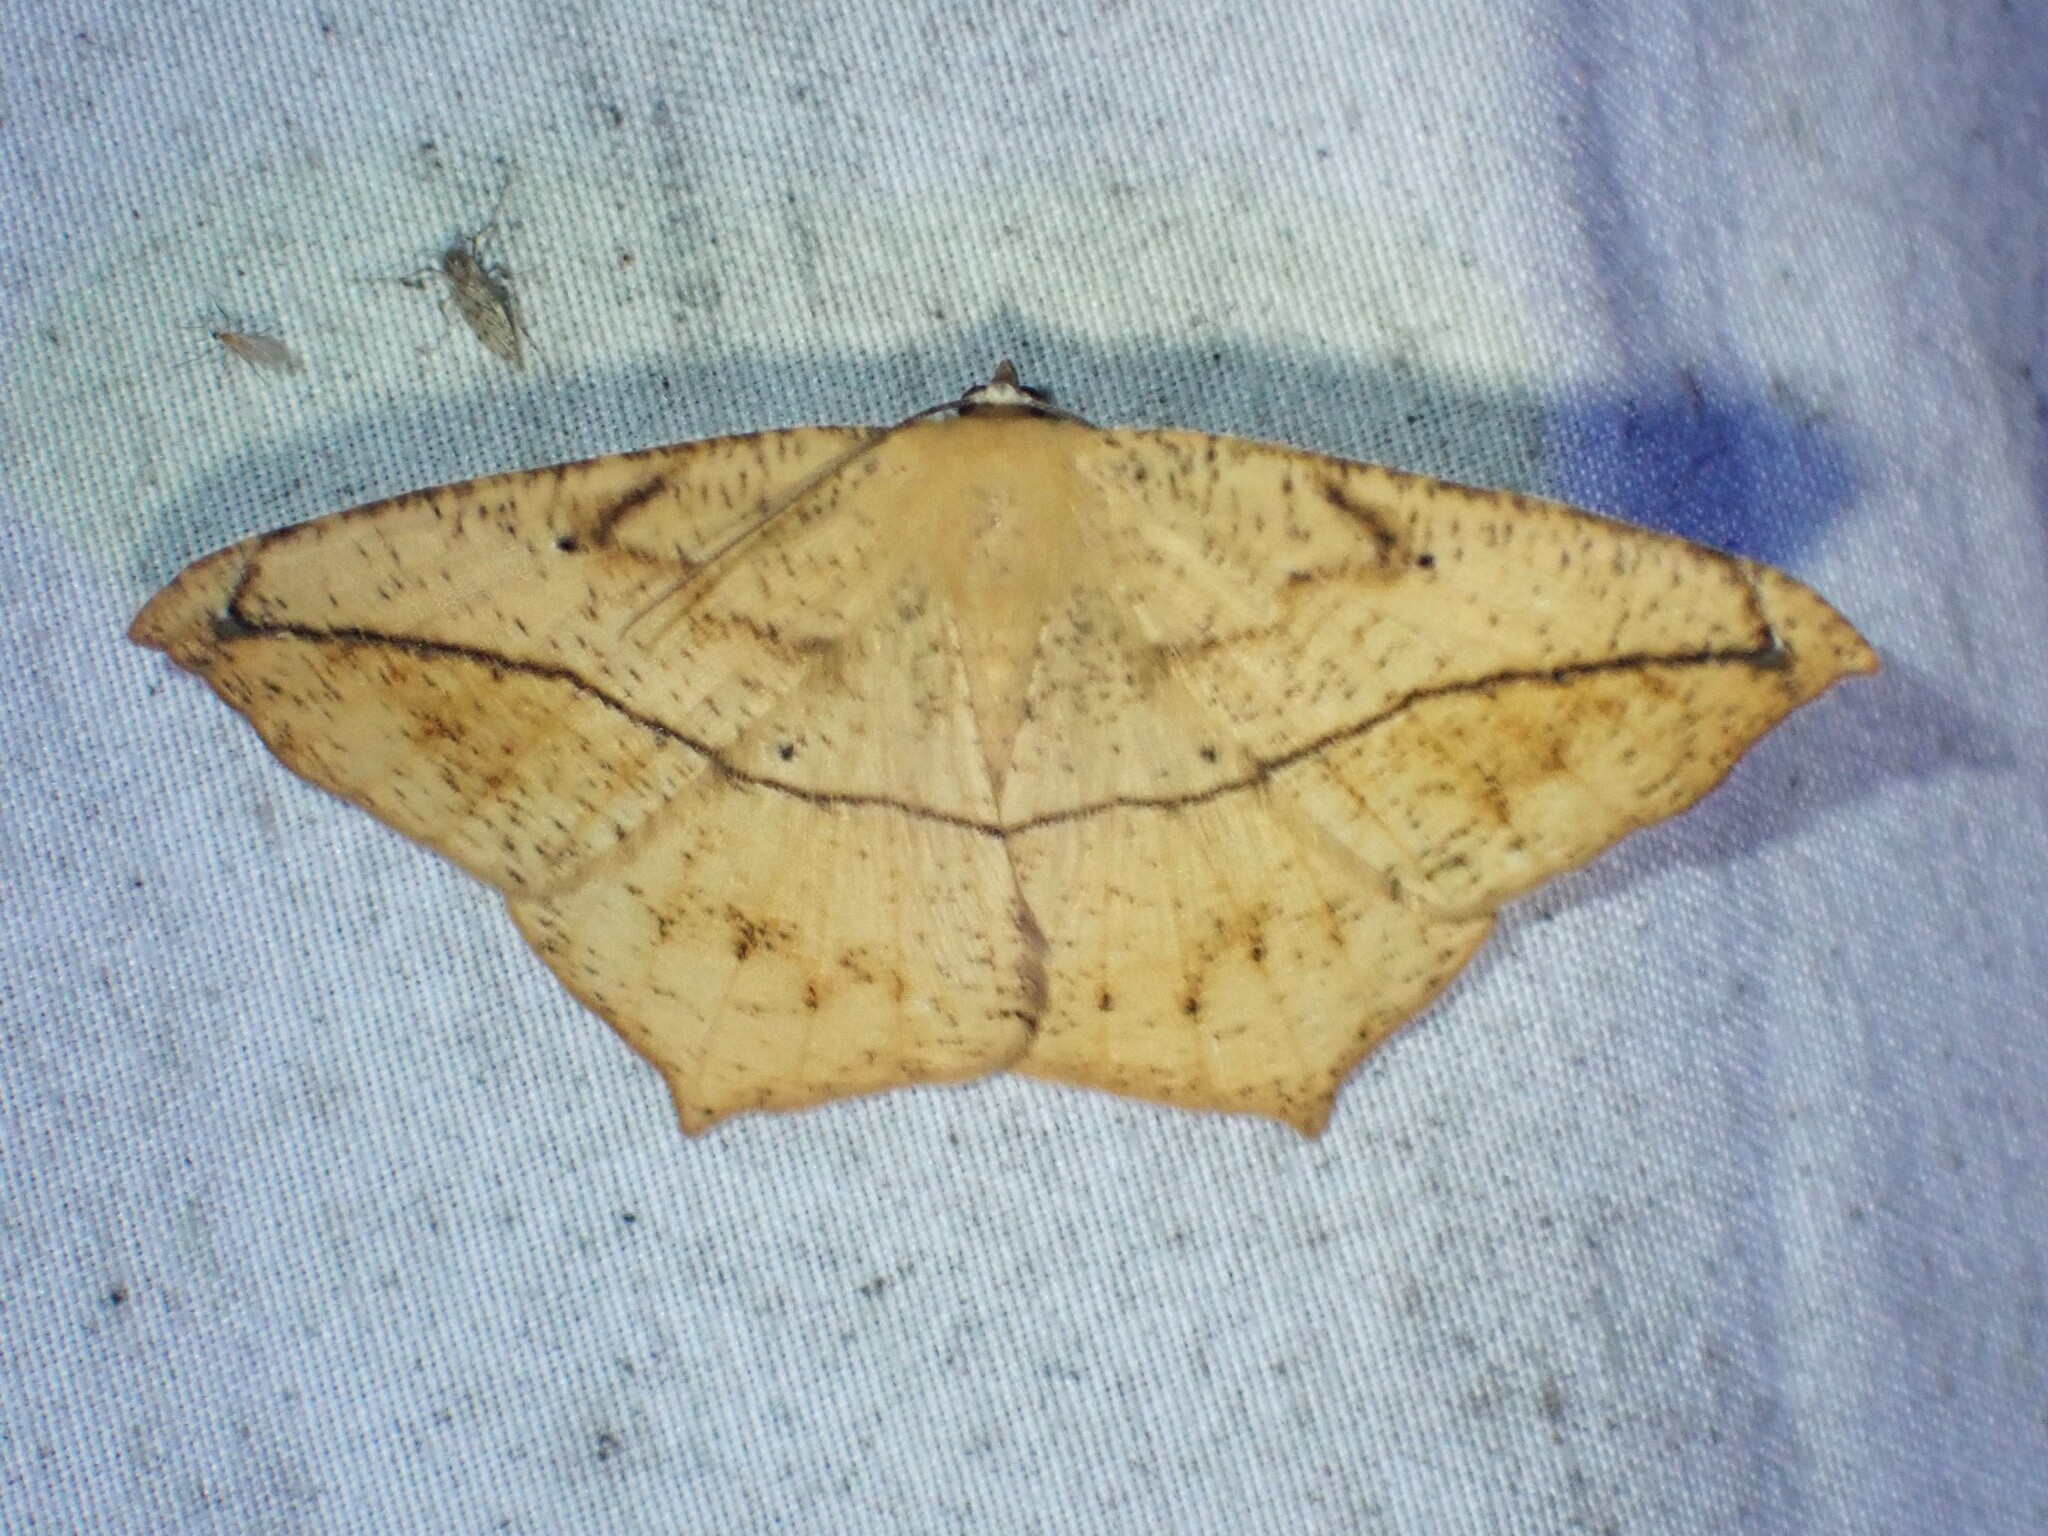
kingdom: Animalia
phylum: Arthropoda
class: Insecta
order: Lepidoptera
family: Geometridae
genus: Prochoerodes
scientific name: Prochoerodes lineola
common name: Large maple spanworm
